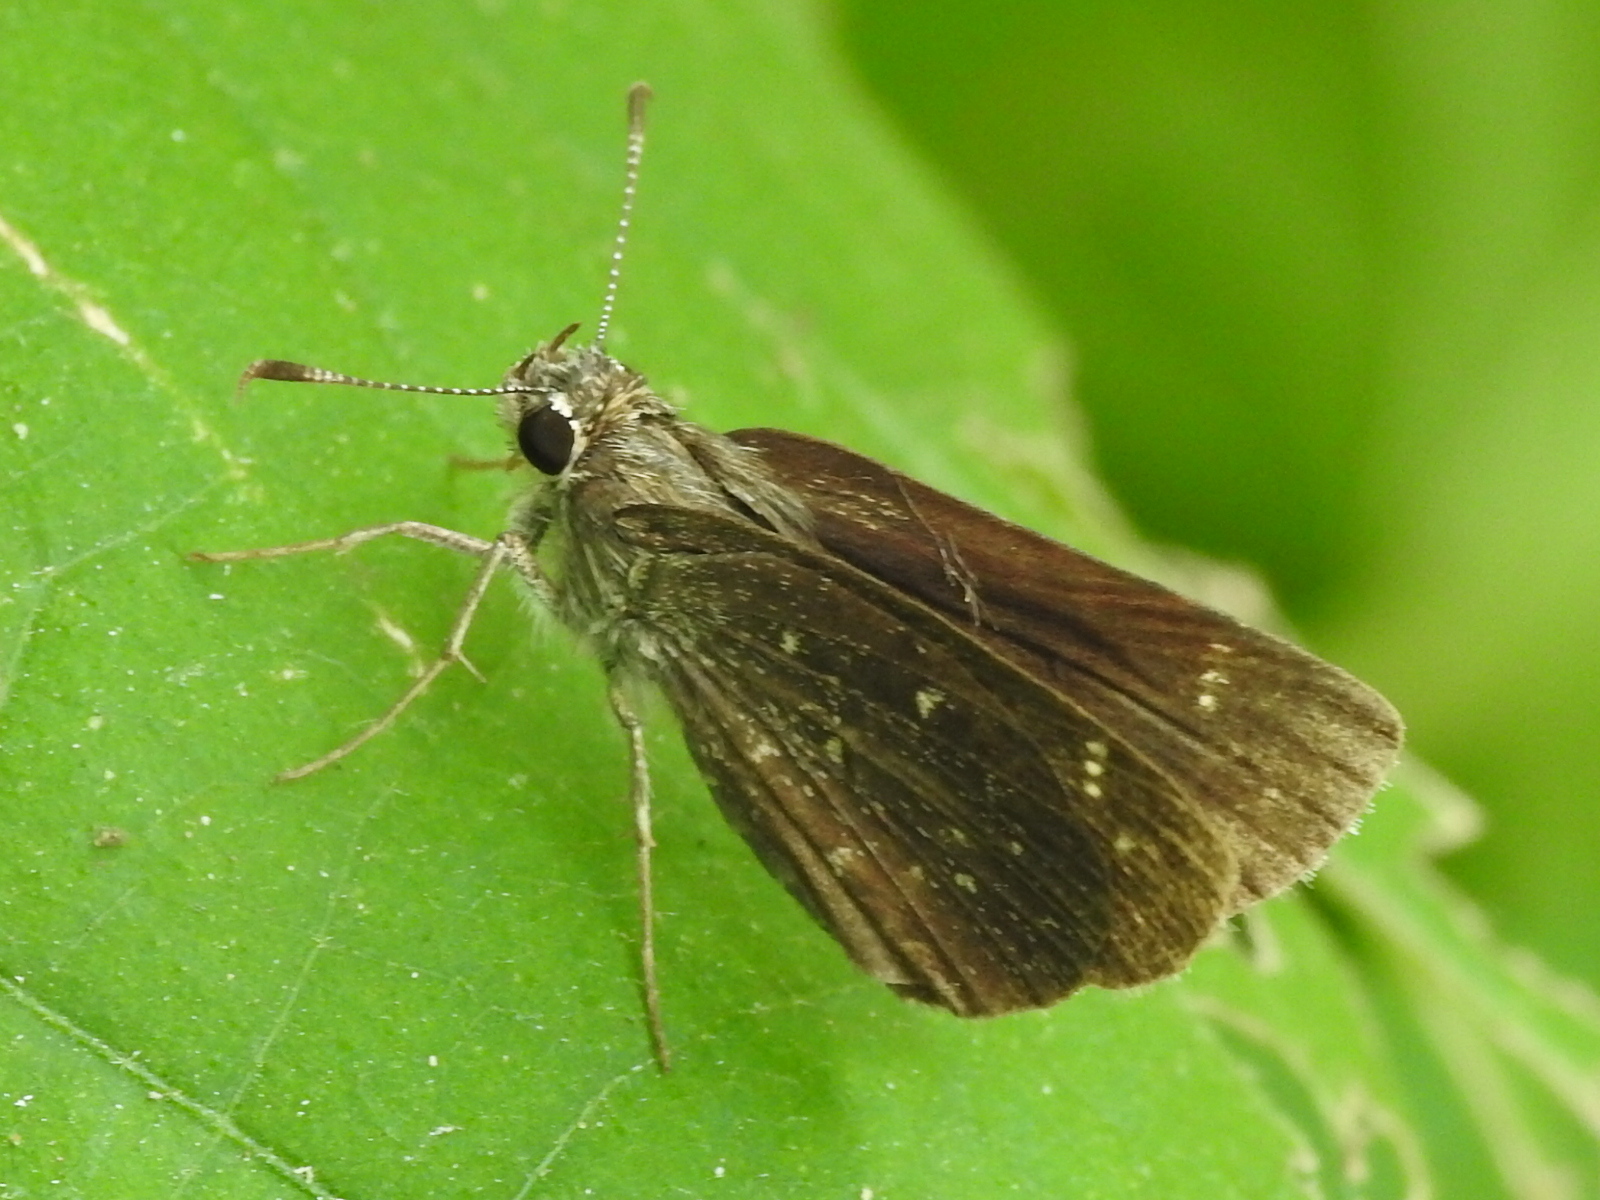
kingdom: Animalia
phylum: Arthropoda
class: Insecta
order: Lepidoptera
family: Hesperiidae
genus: Mastor
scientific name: Mastor celia
